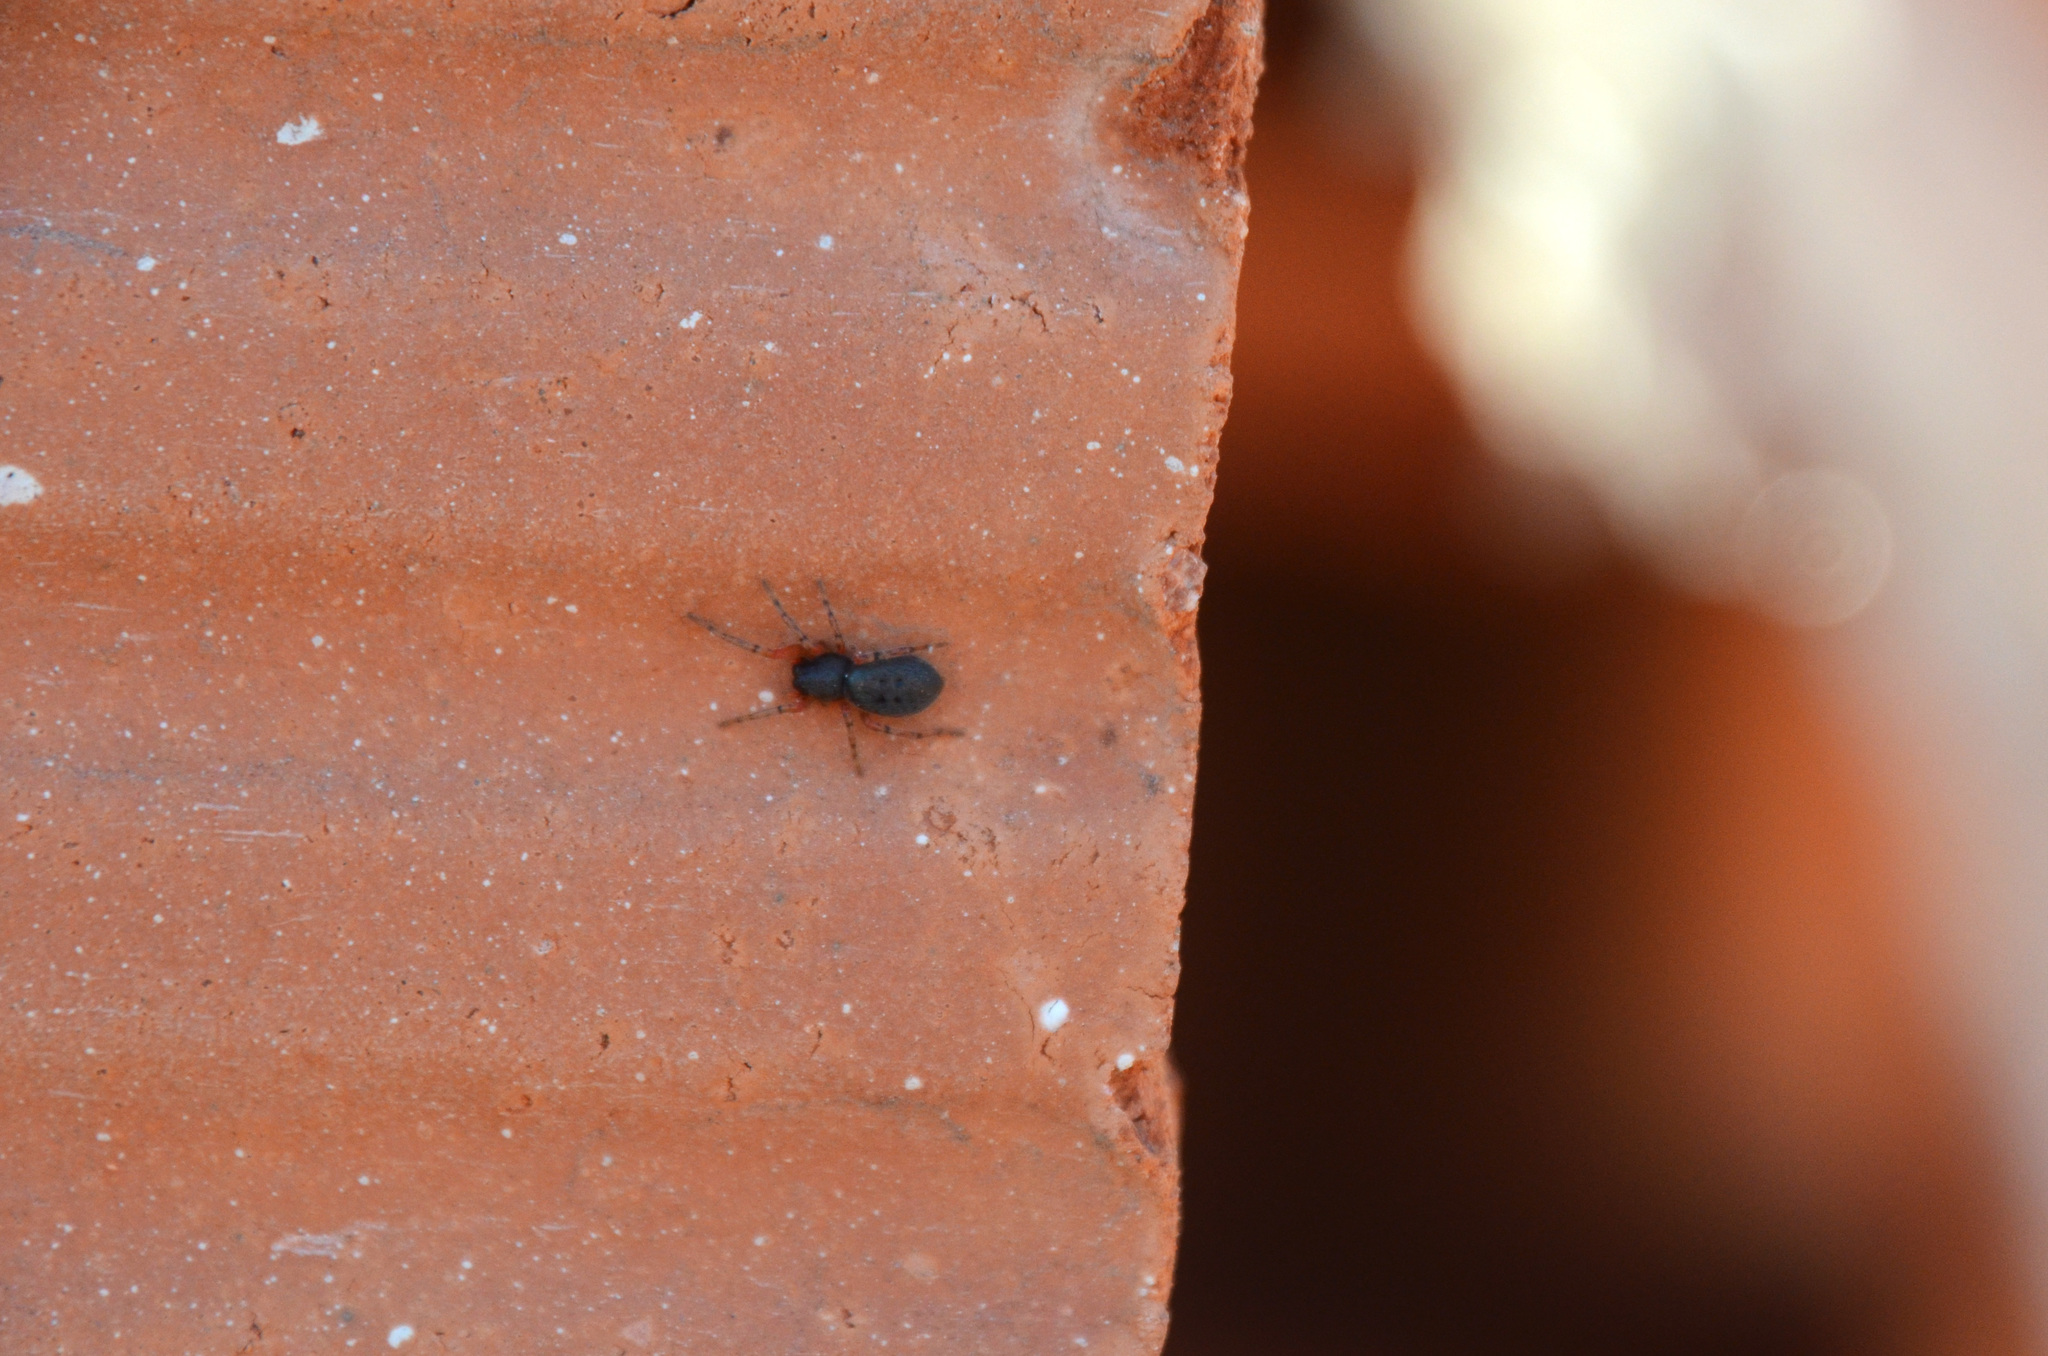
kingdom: Animalia
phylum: Arthropoda
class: Arachnida
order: Araneae
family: Trachelidae
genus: Trachelopachys
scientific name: Trachelopachys
